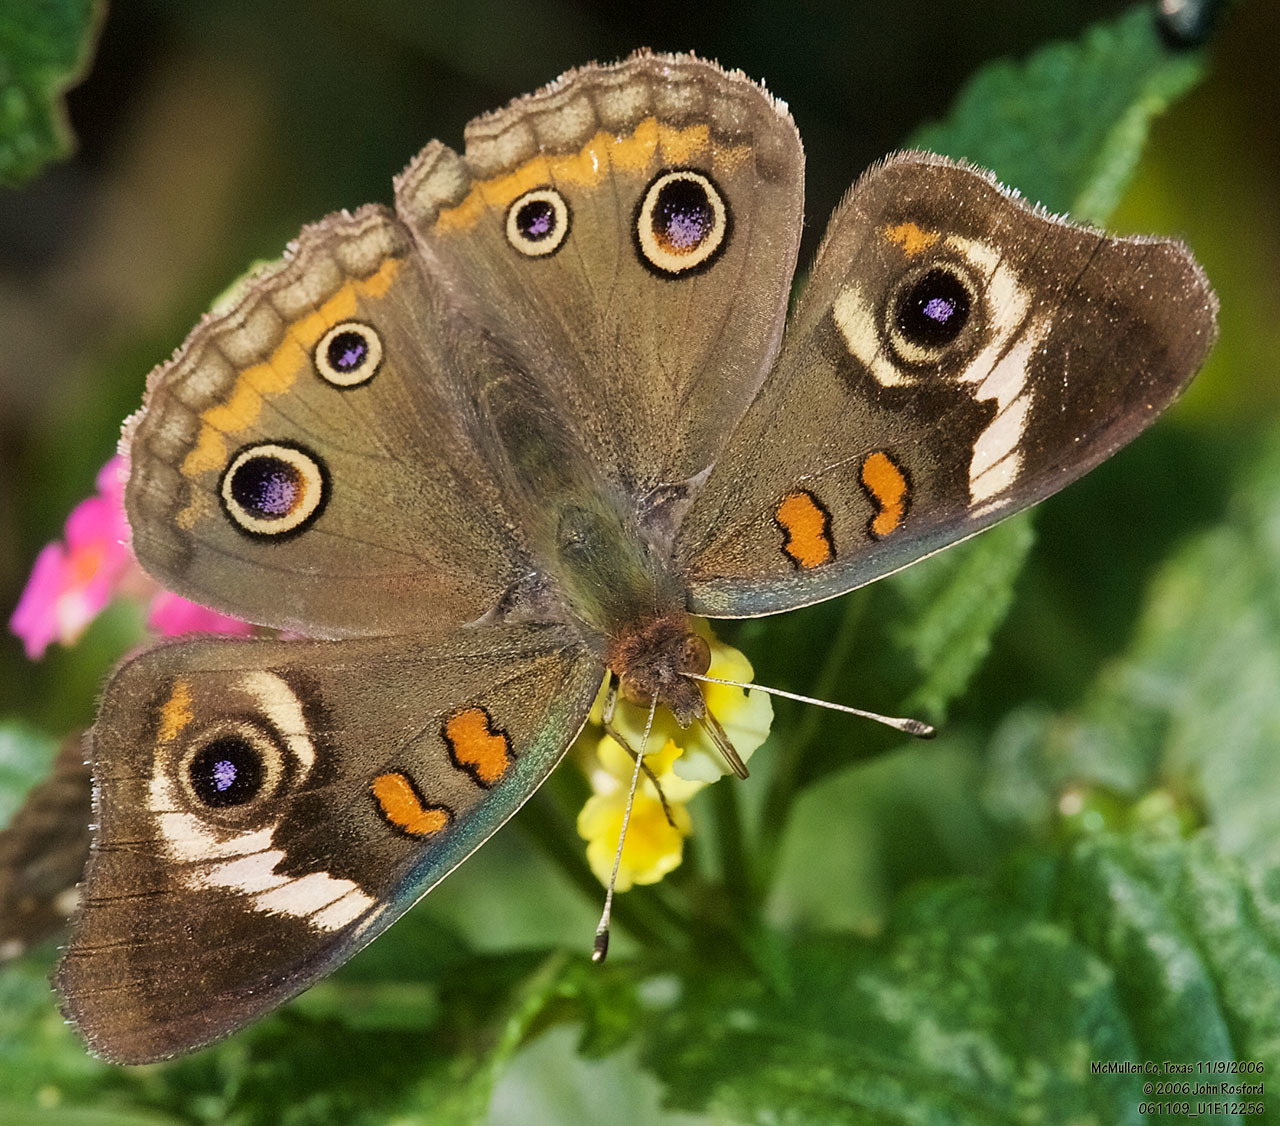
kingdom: Animalia
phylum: Arthropoda
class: Insecta
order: Lepidoptera
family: Nymphalidae
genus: Junonia
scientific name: Junonia coenia
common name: Common buckeye
